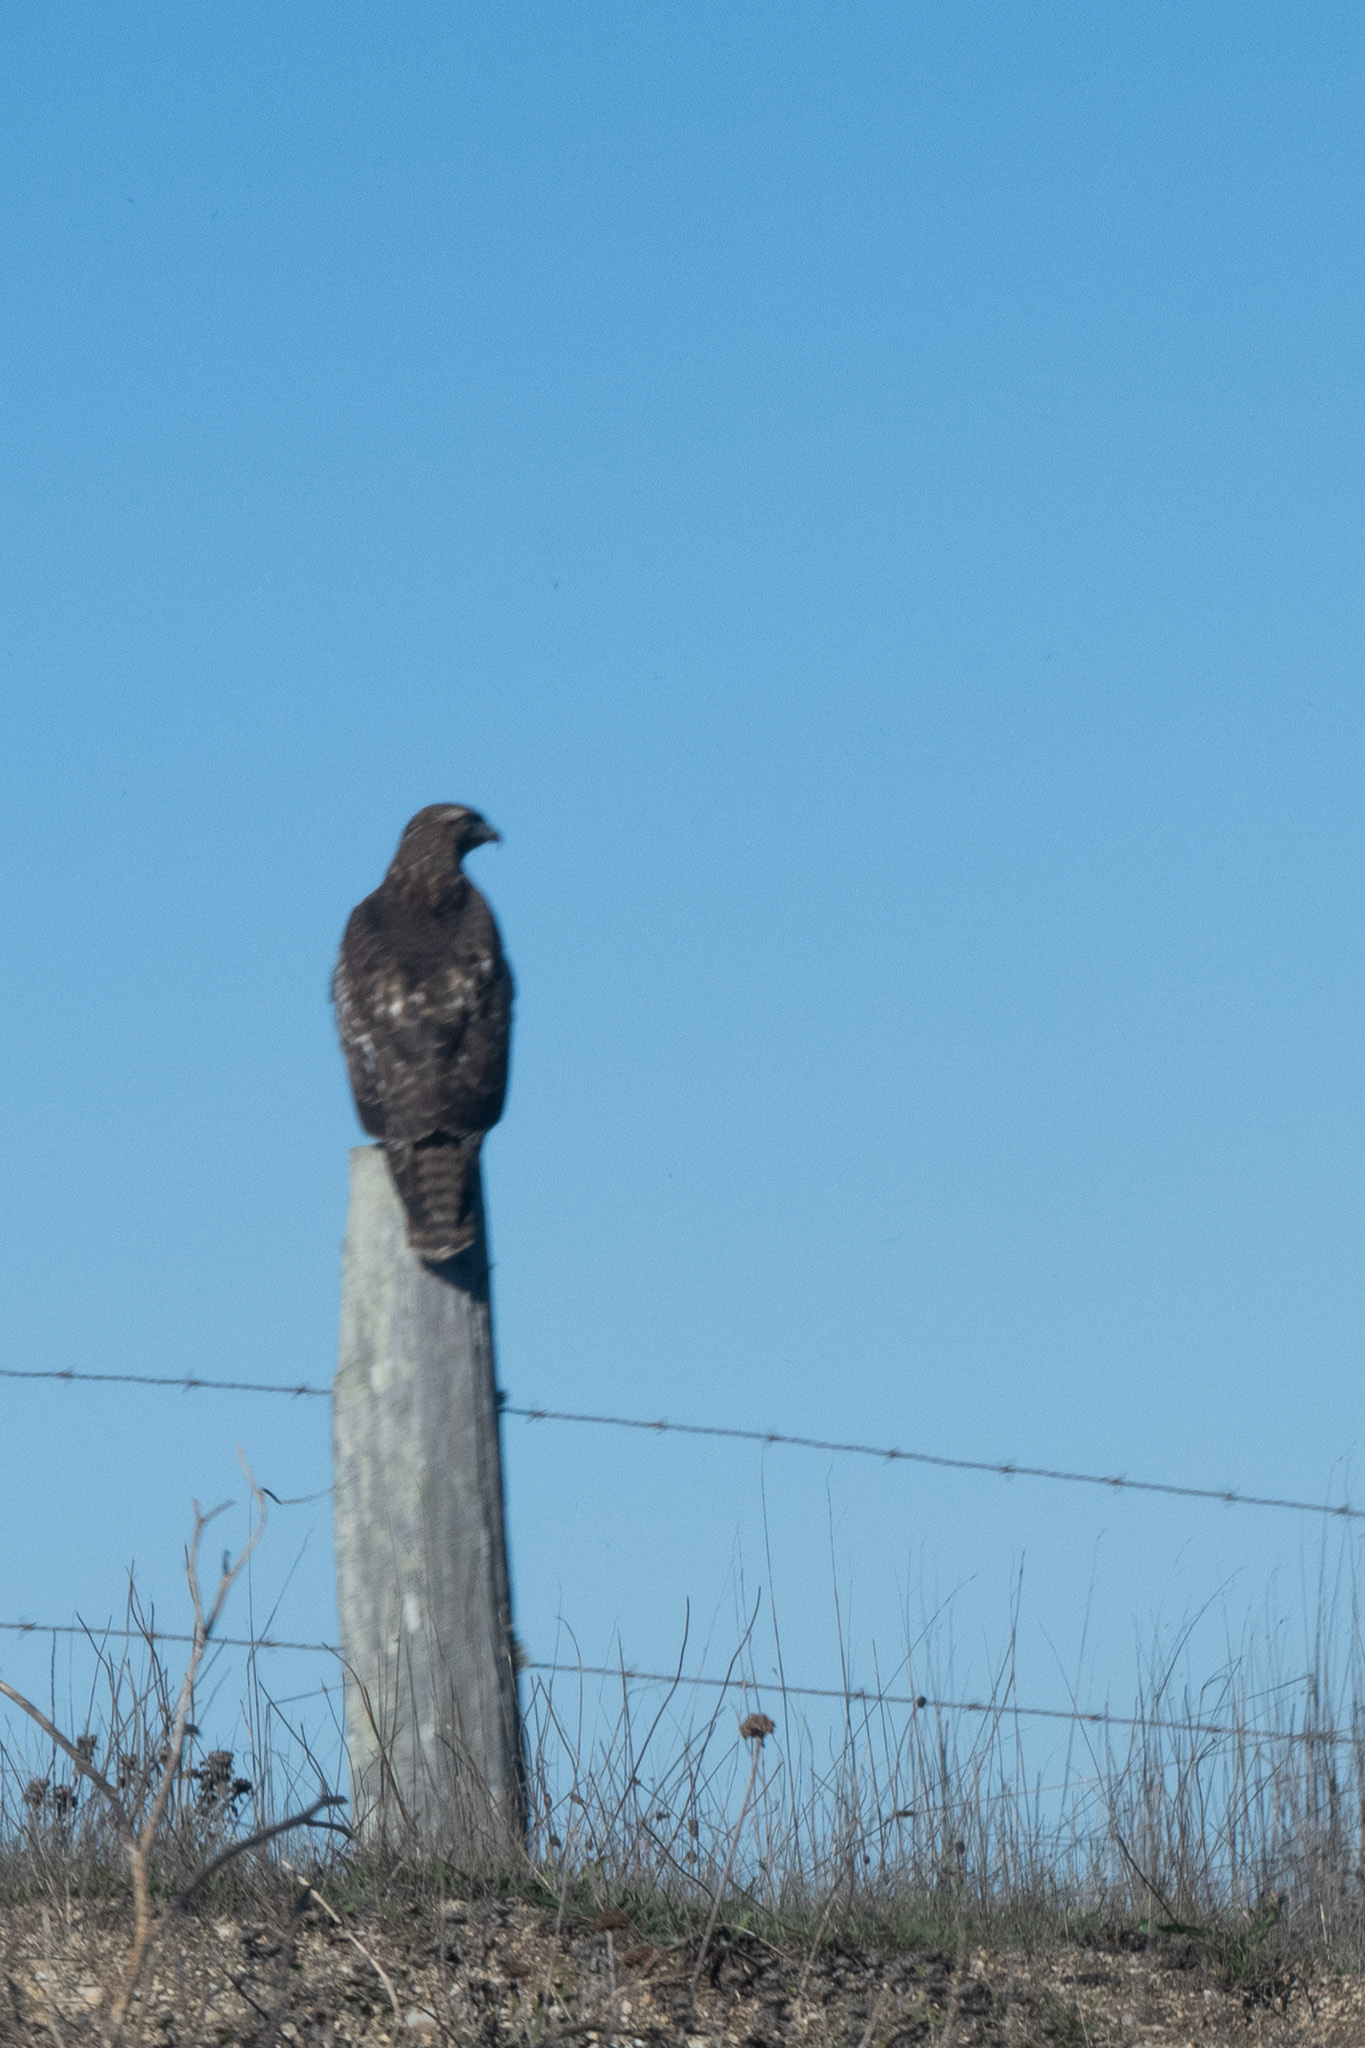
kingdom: Animalia
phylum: Chordata
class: Aves
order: Accipitriformes
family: Accipitridae
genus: Buteo
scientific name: Buteo jamaicensis
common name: Red-tailed hawk
